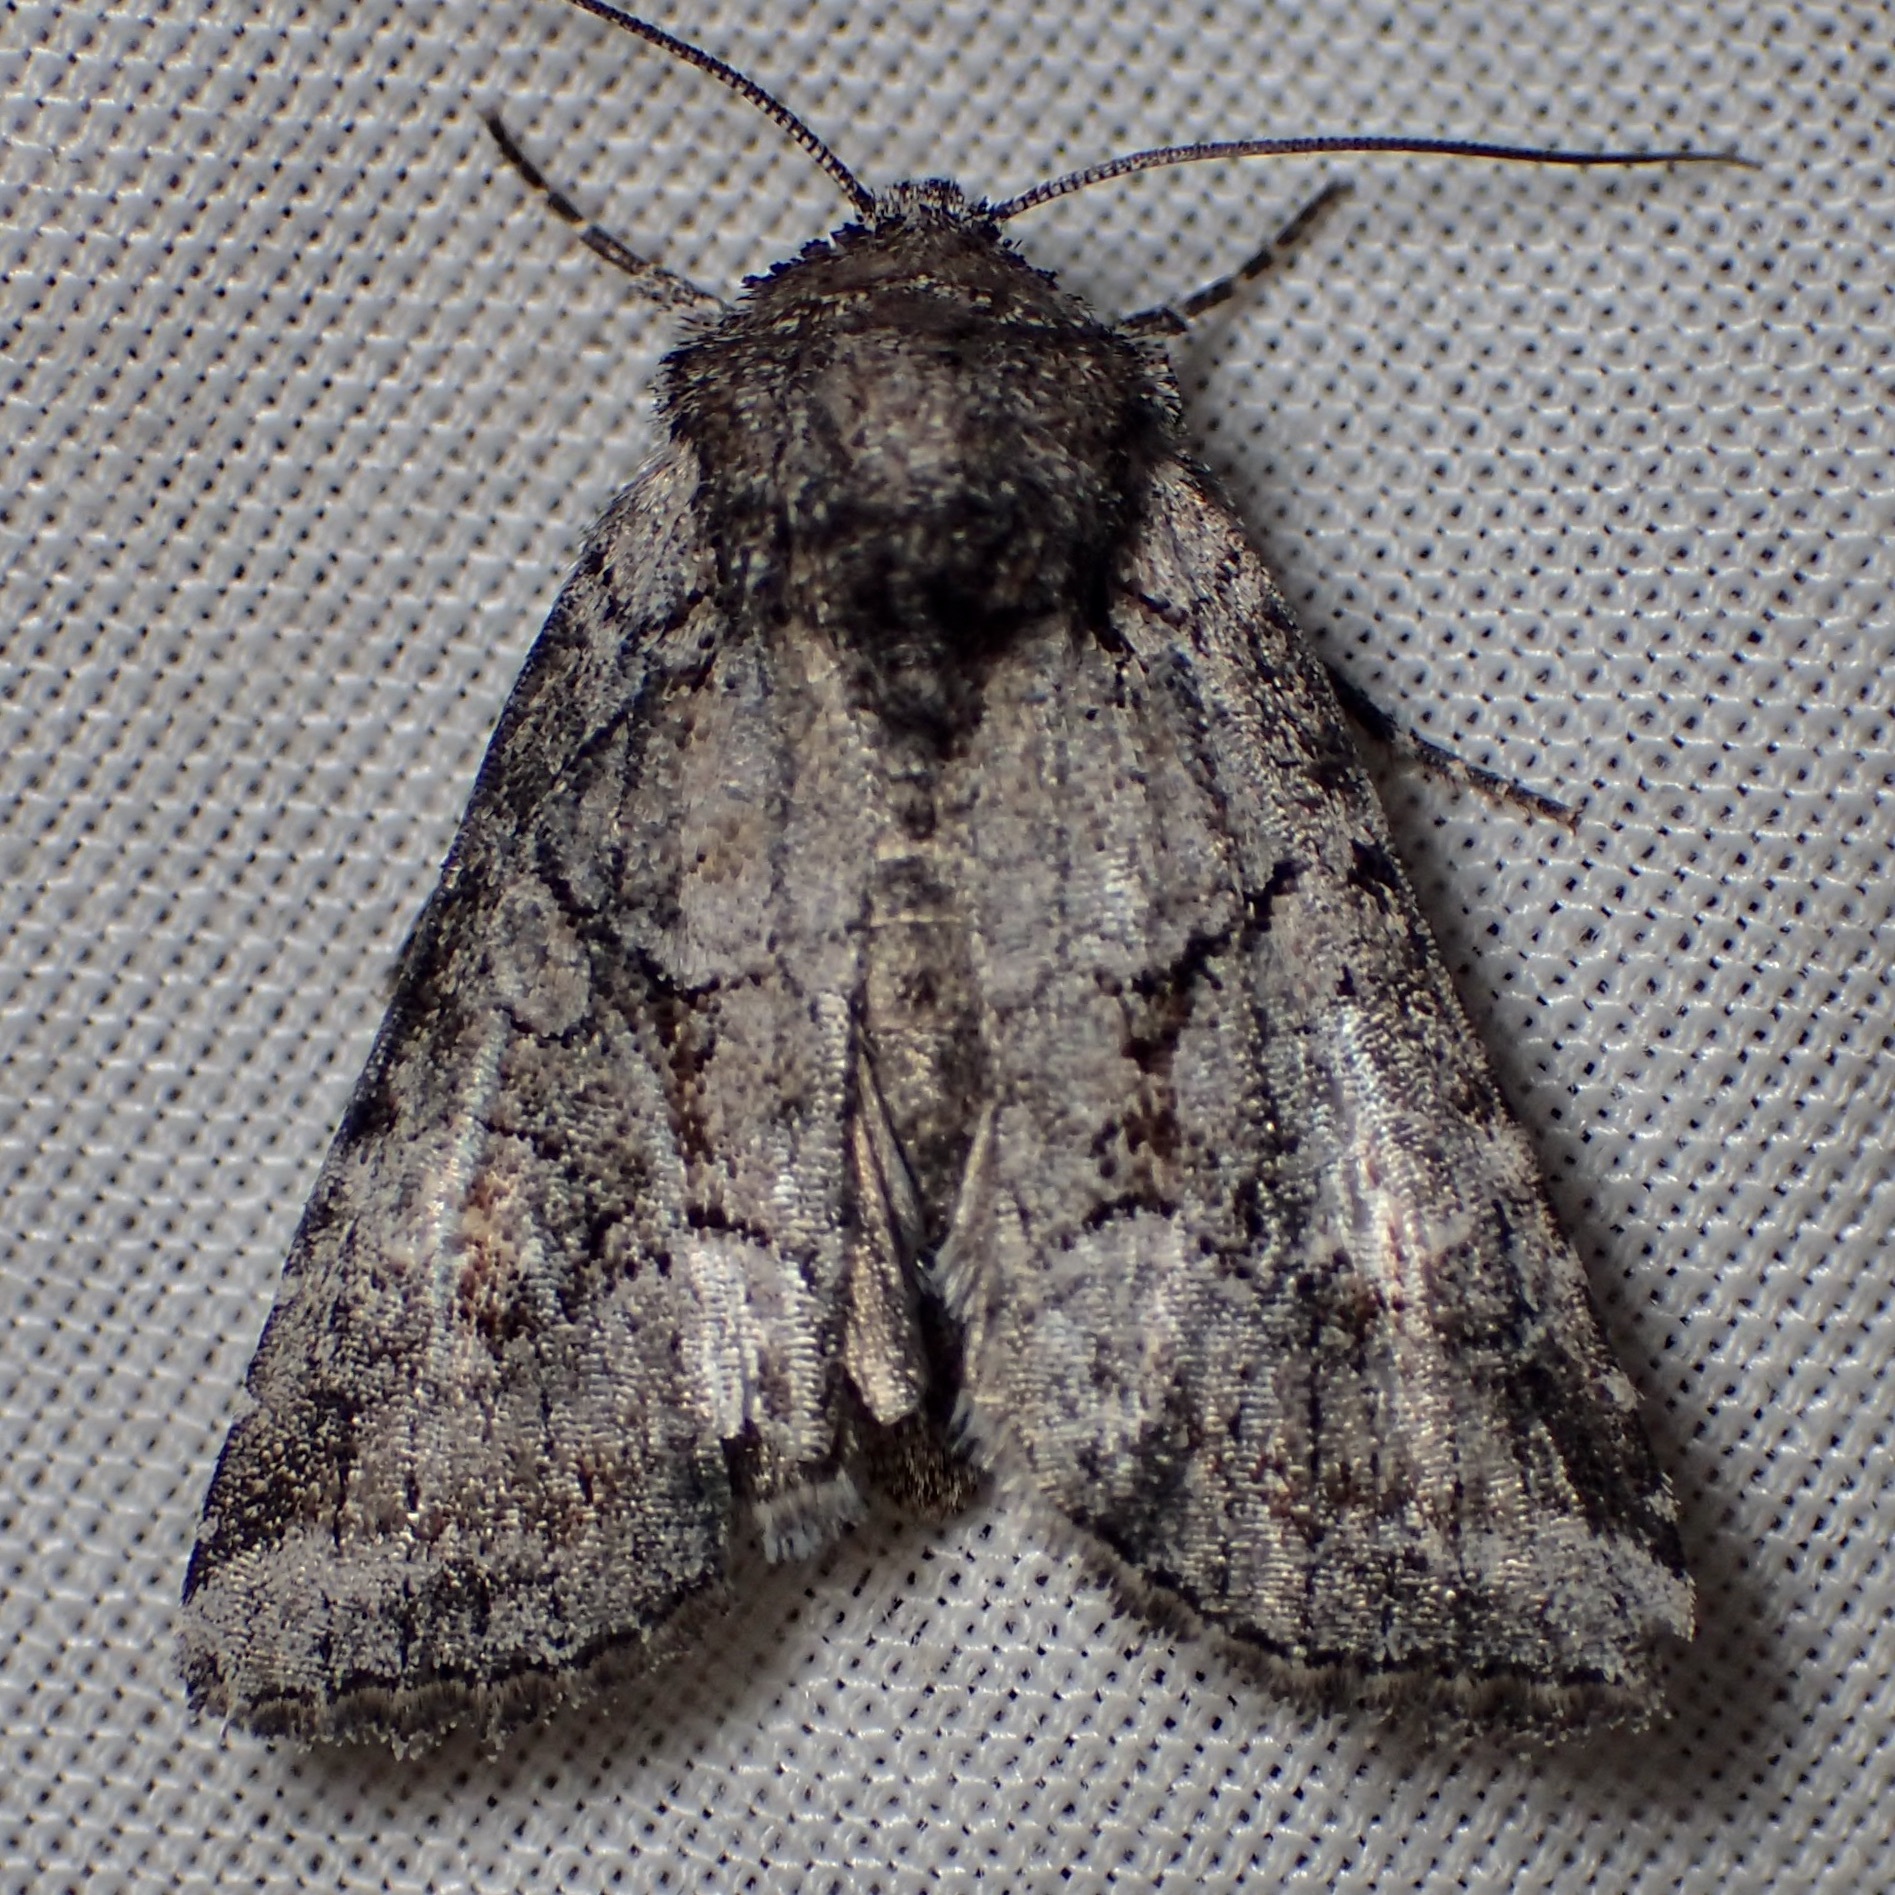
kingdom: Animalia
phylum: Arthropoda
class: Insecta
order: Lepidoptera
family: Noctuidae
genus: Oxycnemis
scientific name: Oxycnemis advena
